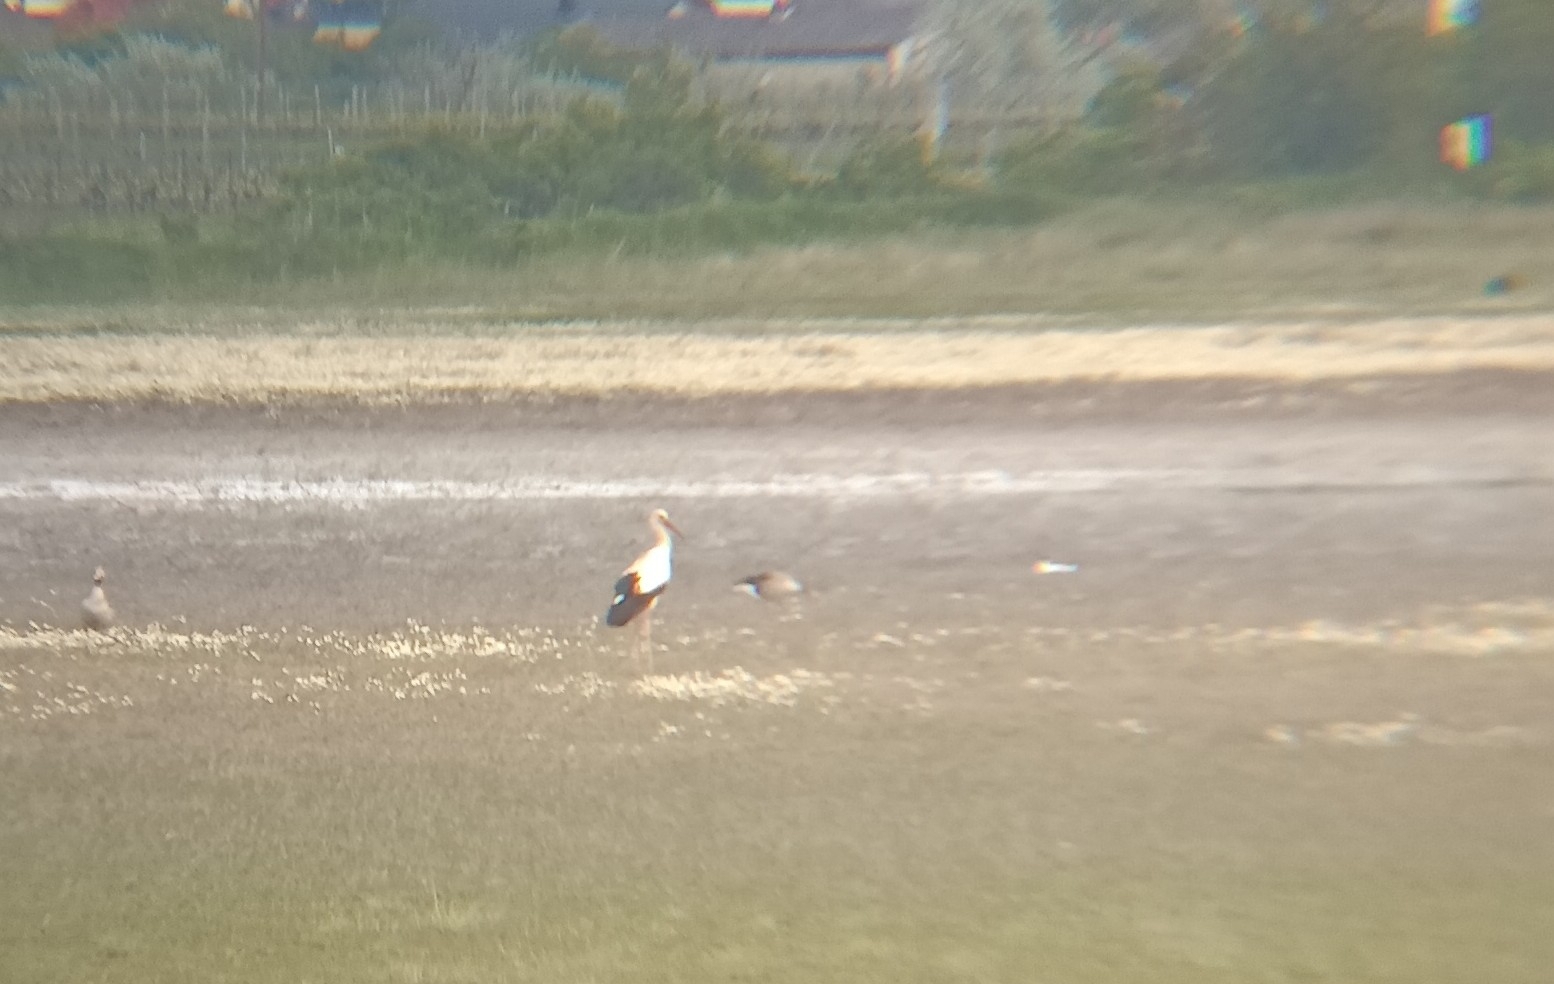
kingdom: Animalia
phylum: Chordata
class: Aves
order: Ciconiiformes
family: Ciconiidae
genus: Ciconia
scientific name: Ciconia ciconia
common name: White stork
